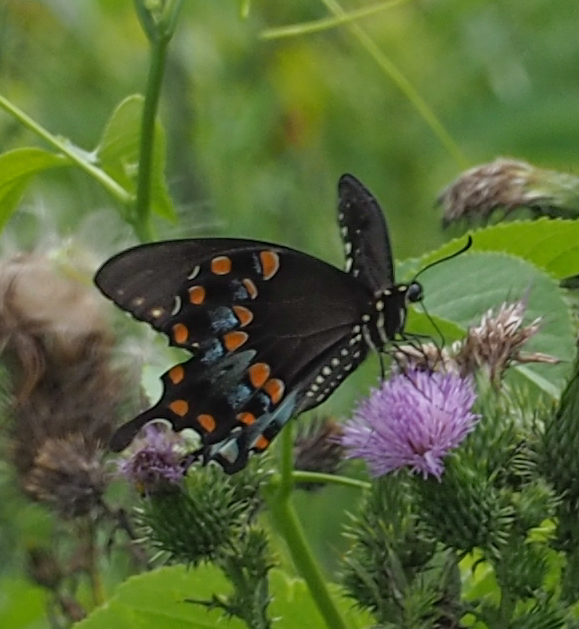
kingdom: Animalia
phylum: Arthropoda
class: Insecta
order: Lepidoptera
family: Papilionidae
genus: Papilio
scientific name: Papilio troilus
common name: Spicebush swallowtail
